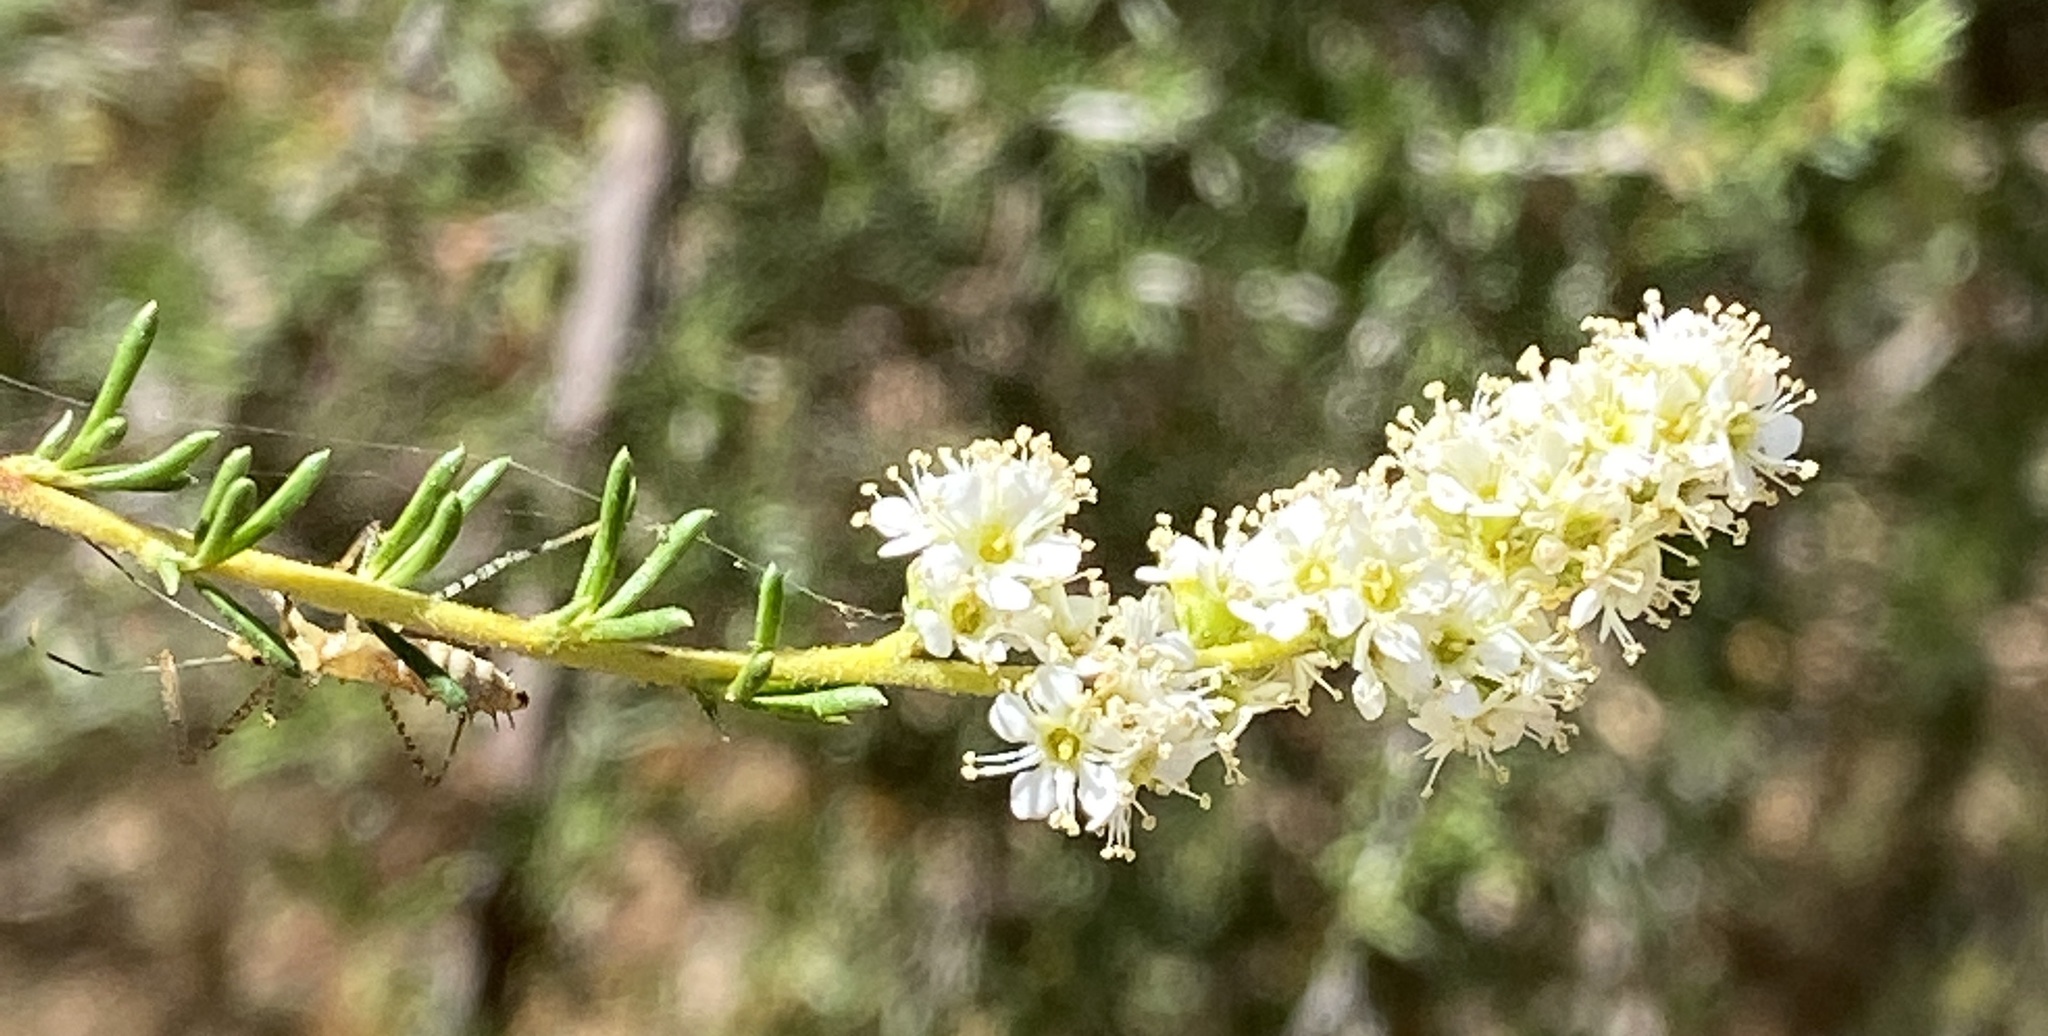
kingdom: Plantae
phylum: Tracheophyta
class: Magnoliopsida
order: Rosales
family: Rosaceae
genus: Adenostoma
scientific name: Adenostoma fasciculatum
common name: Chamise
